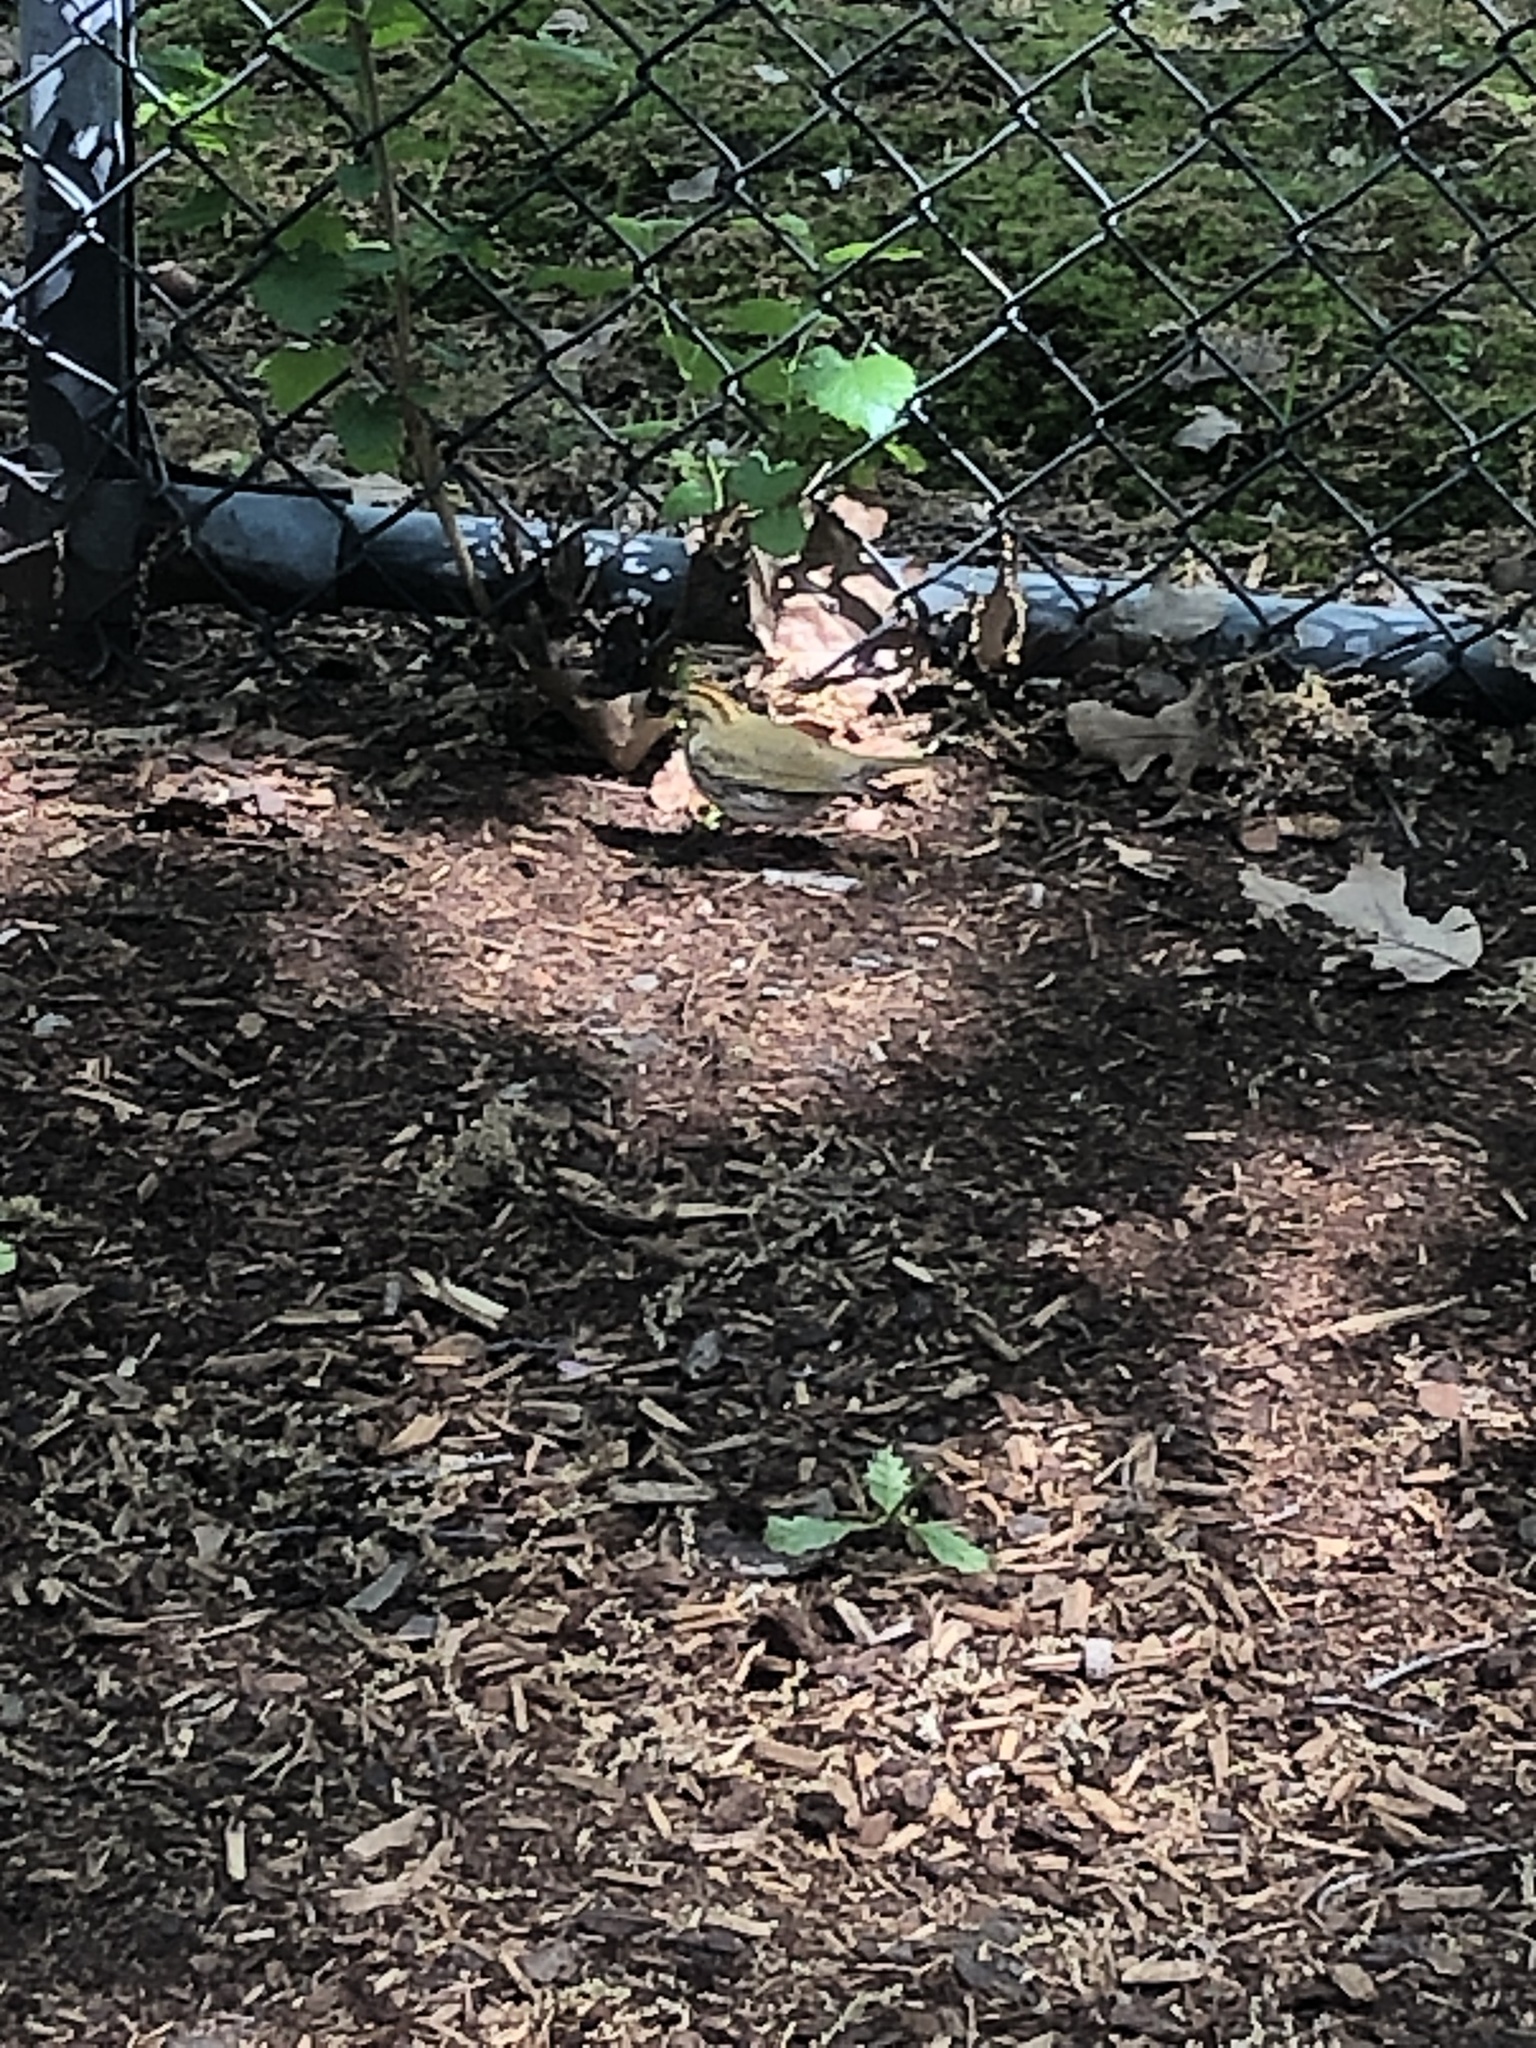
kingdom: Animalia
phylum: Chordata
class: Aves
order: Passeriformes
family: Parulidae
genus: Seiurus
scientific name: Seiurus aurocapilla
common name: Ovenbird
